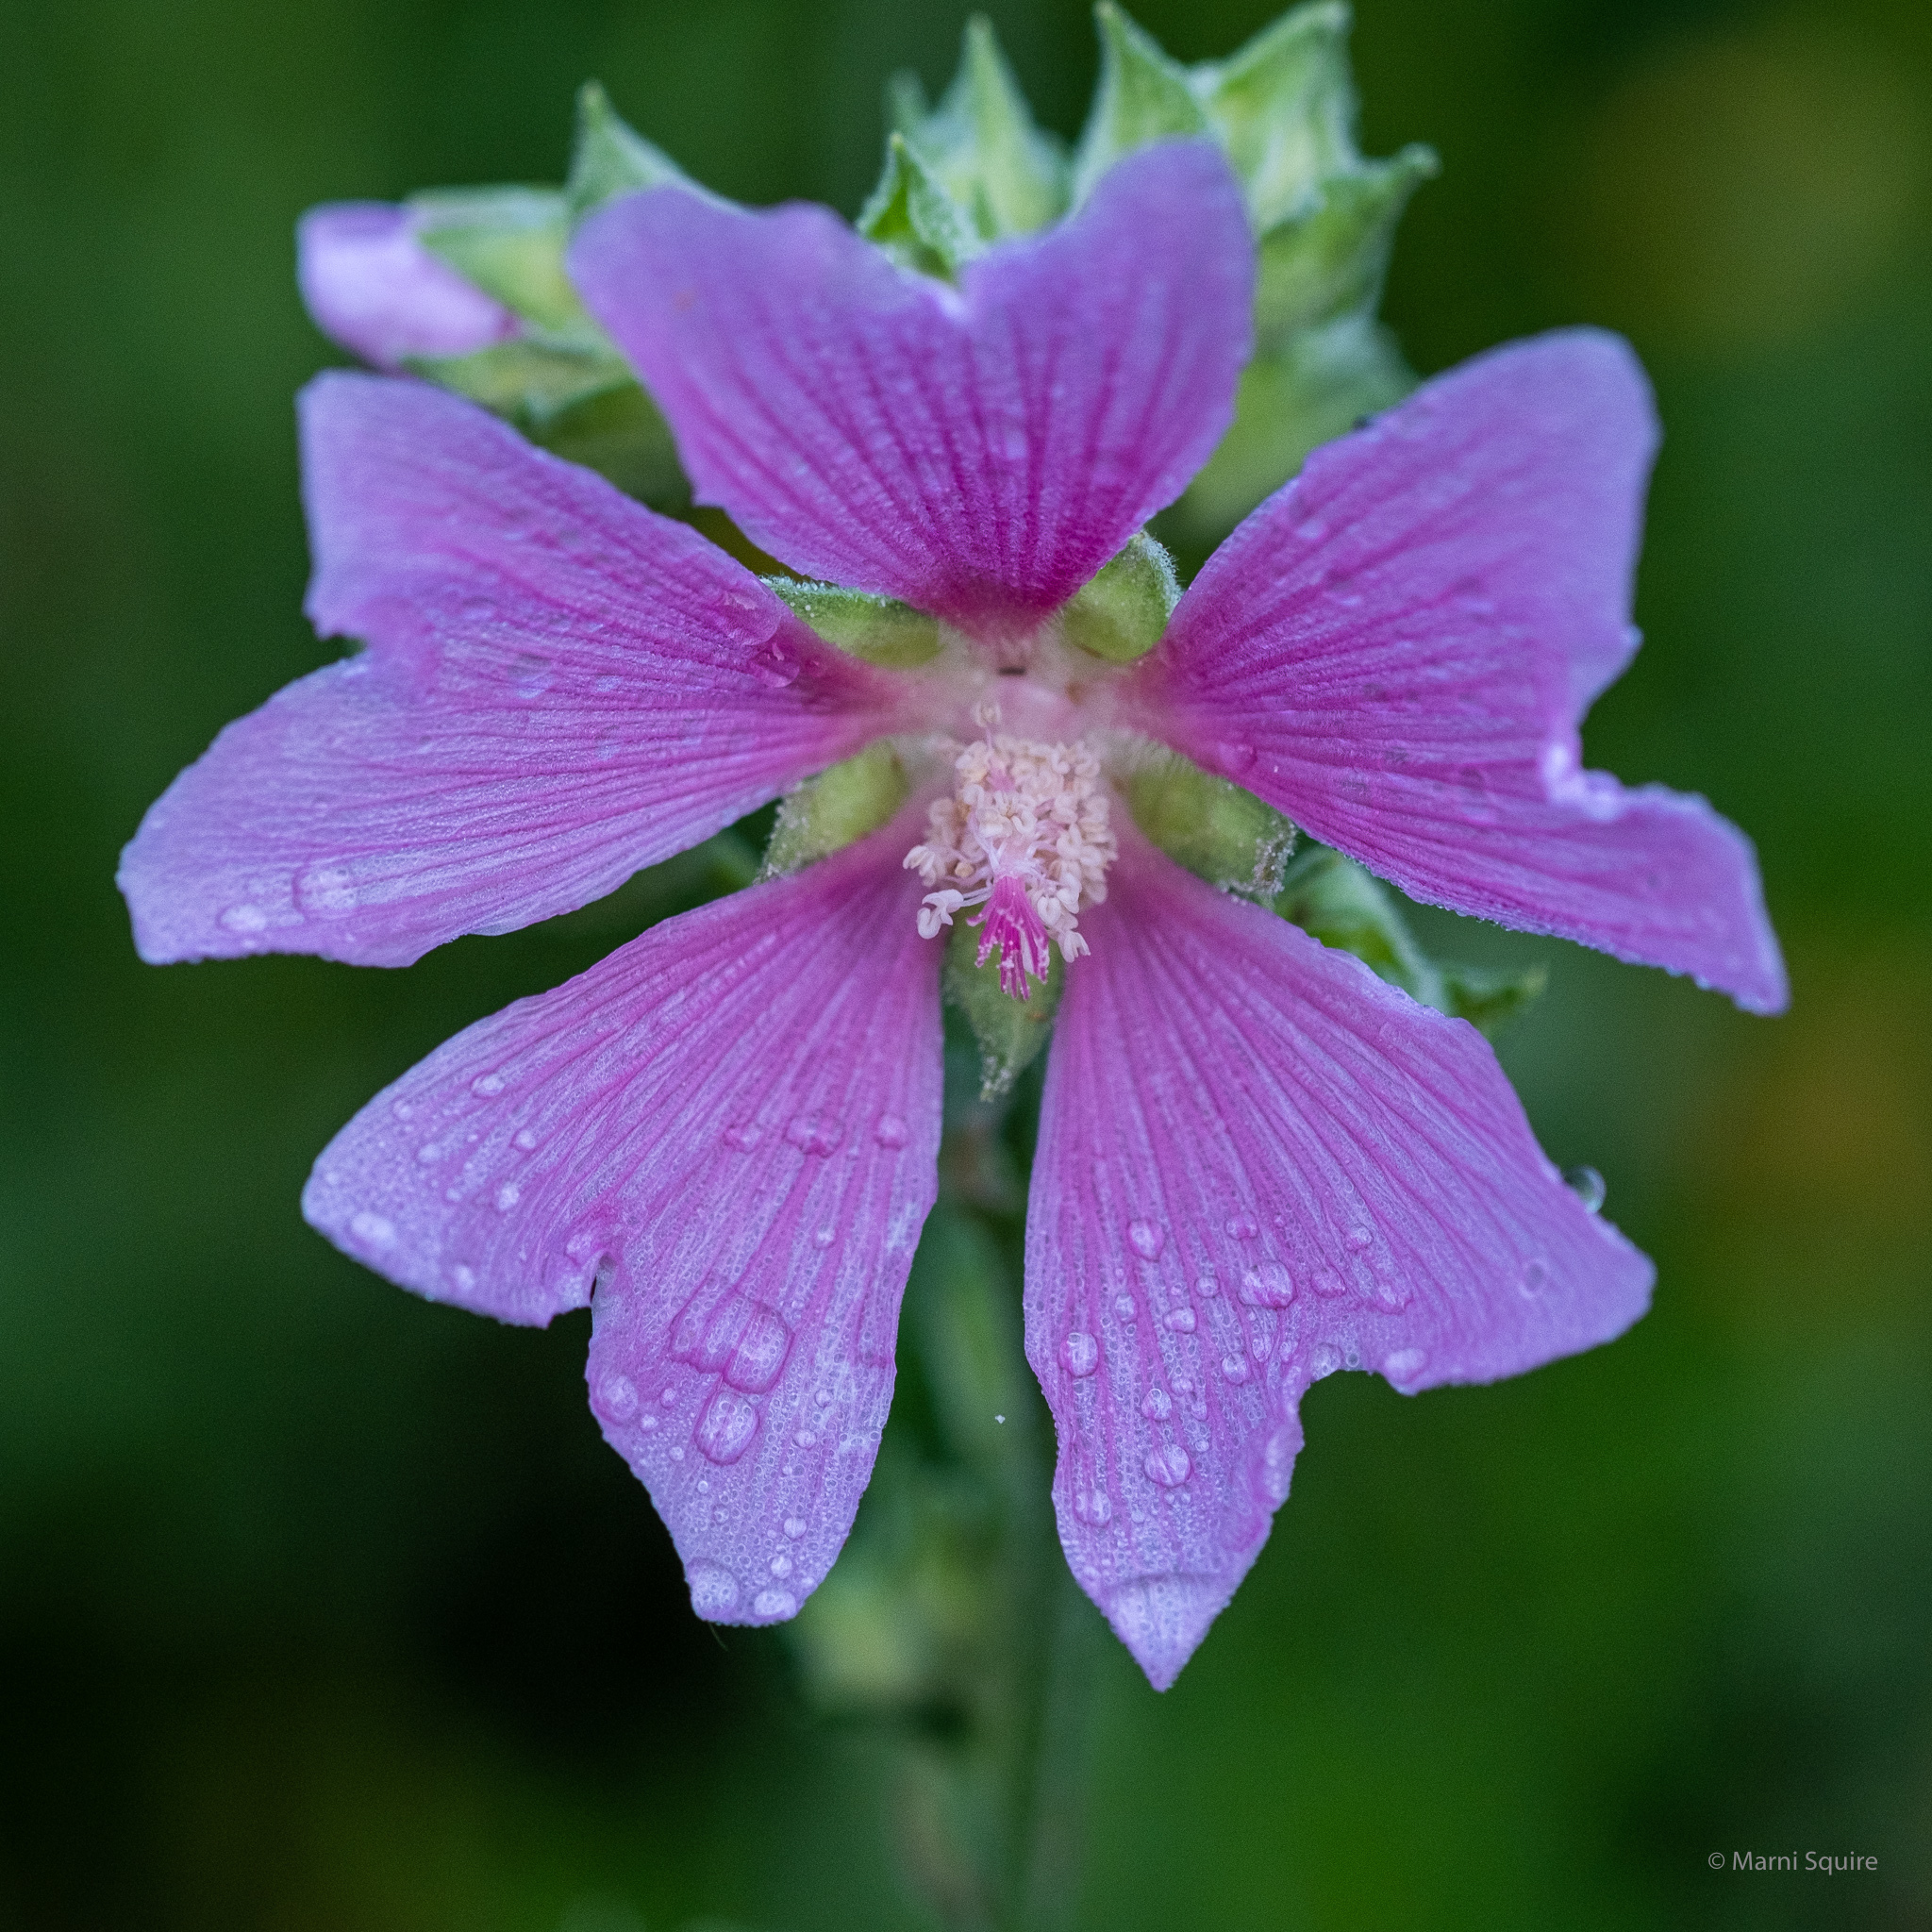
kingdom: Plantae
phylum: Tracheophyta
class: Magnoliopsida
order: Malvales
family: Malvaceae
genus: Malva
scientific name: Malva moschata
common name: Musk mallow
